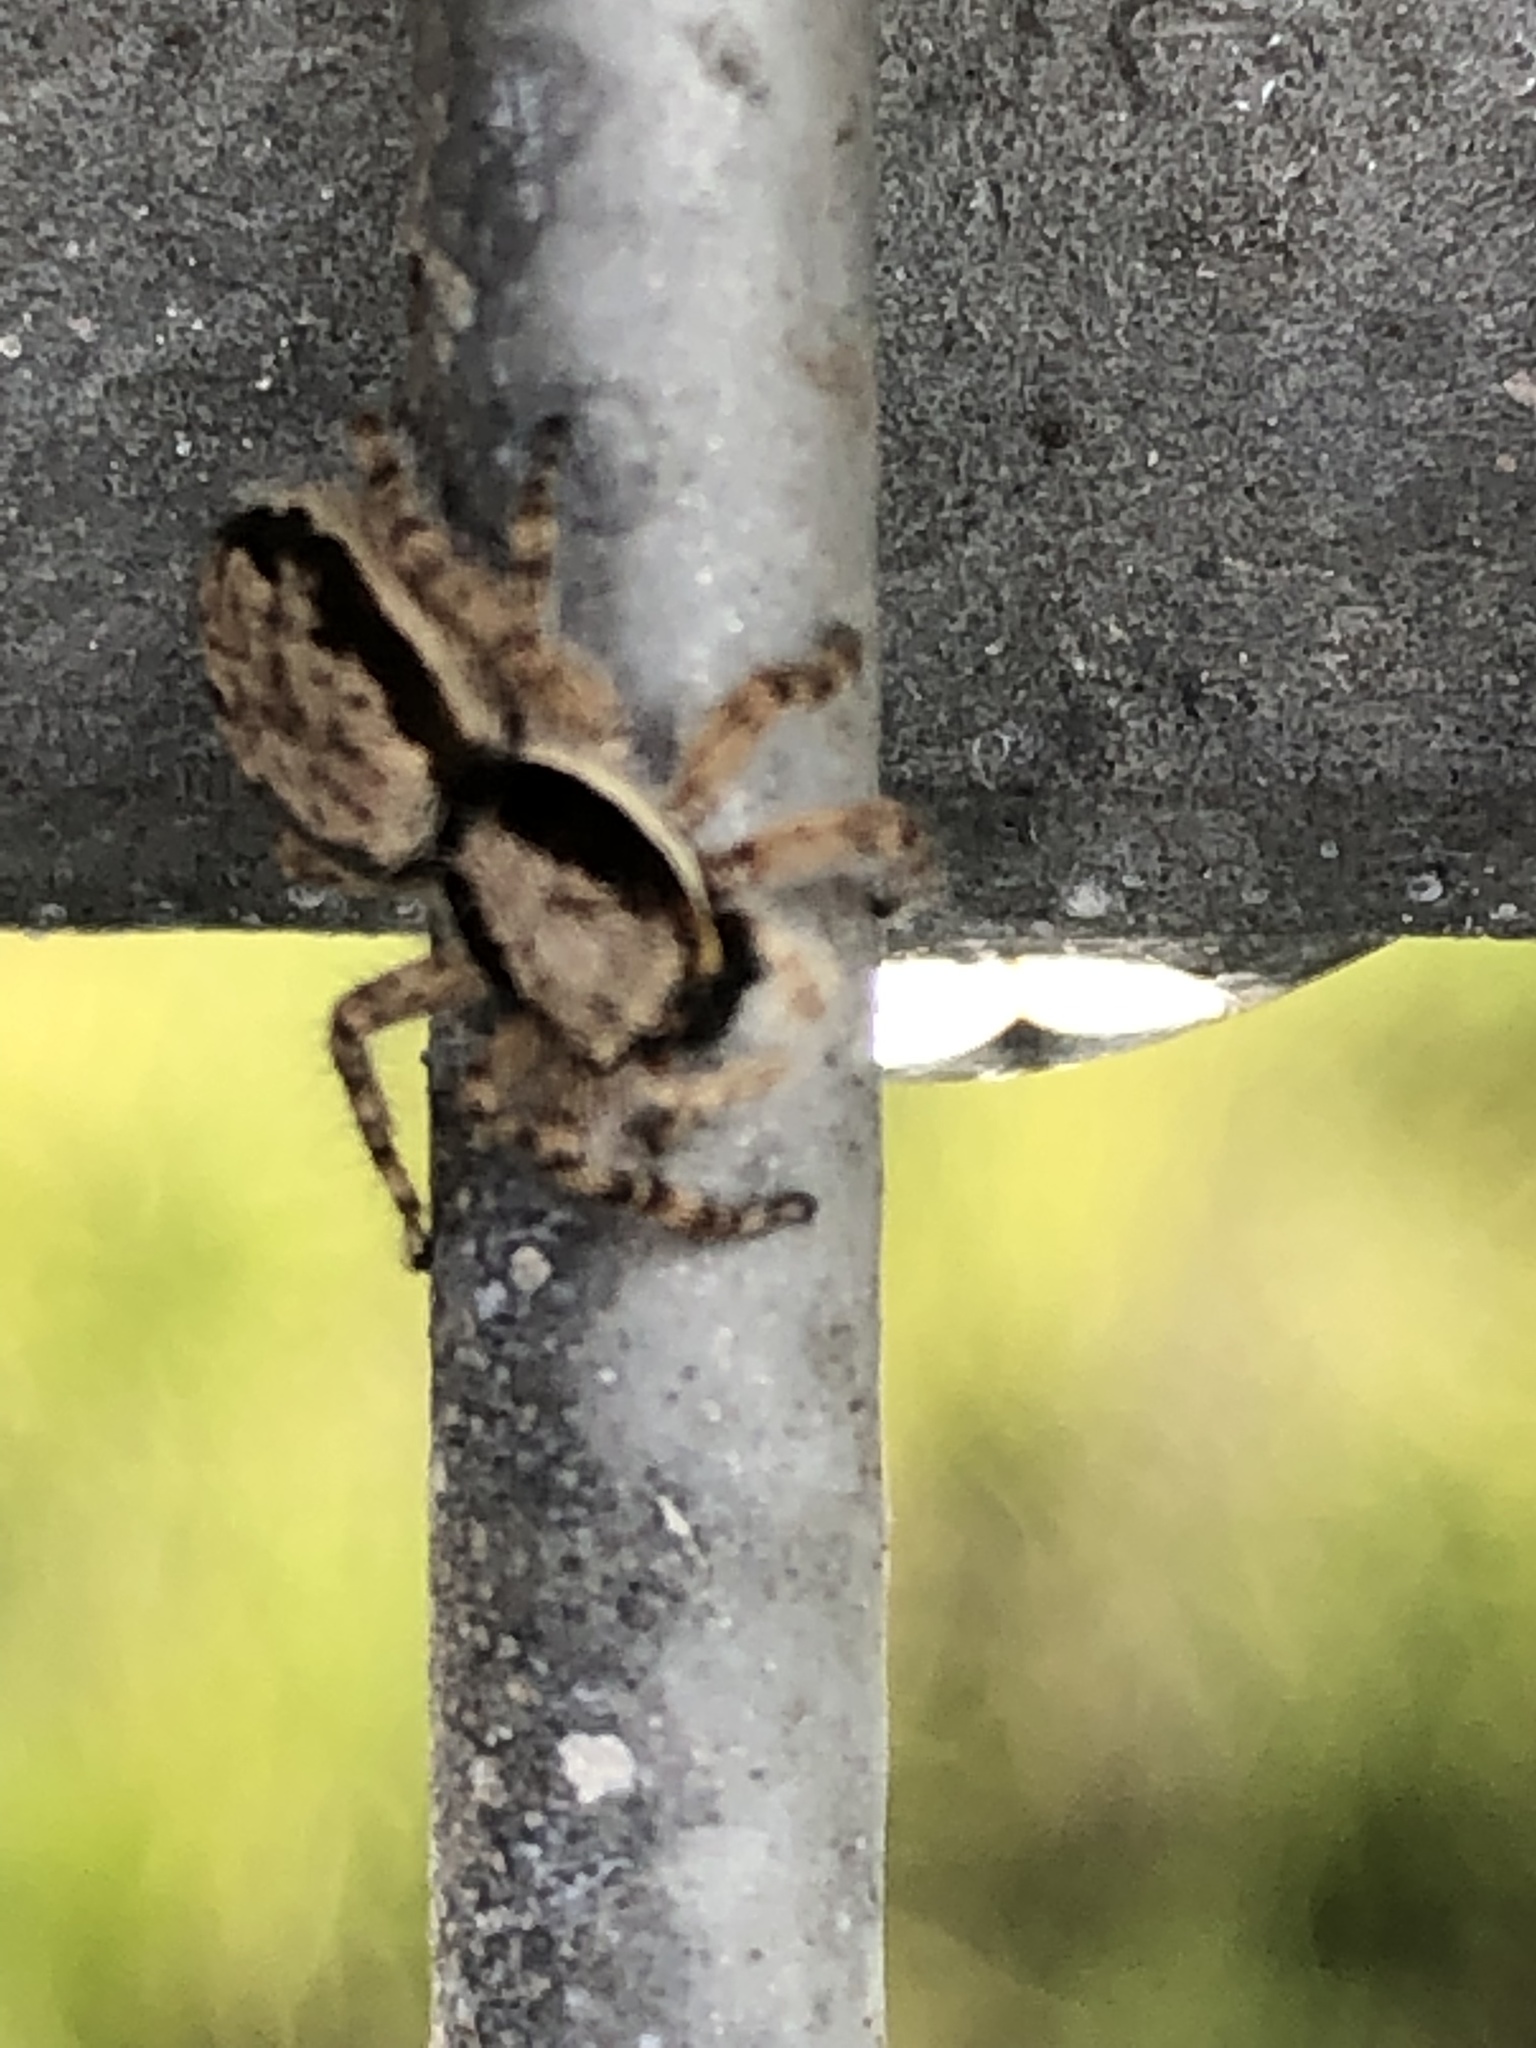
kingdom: Animalia
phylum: Arthropoda
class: Arachnida
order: Araneae
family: Salticidae
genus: Menemerus
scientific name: Menemerus bivittatus
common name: Gray wall jumper
